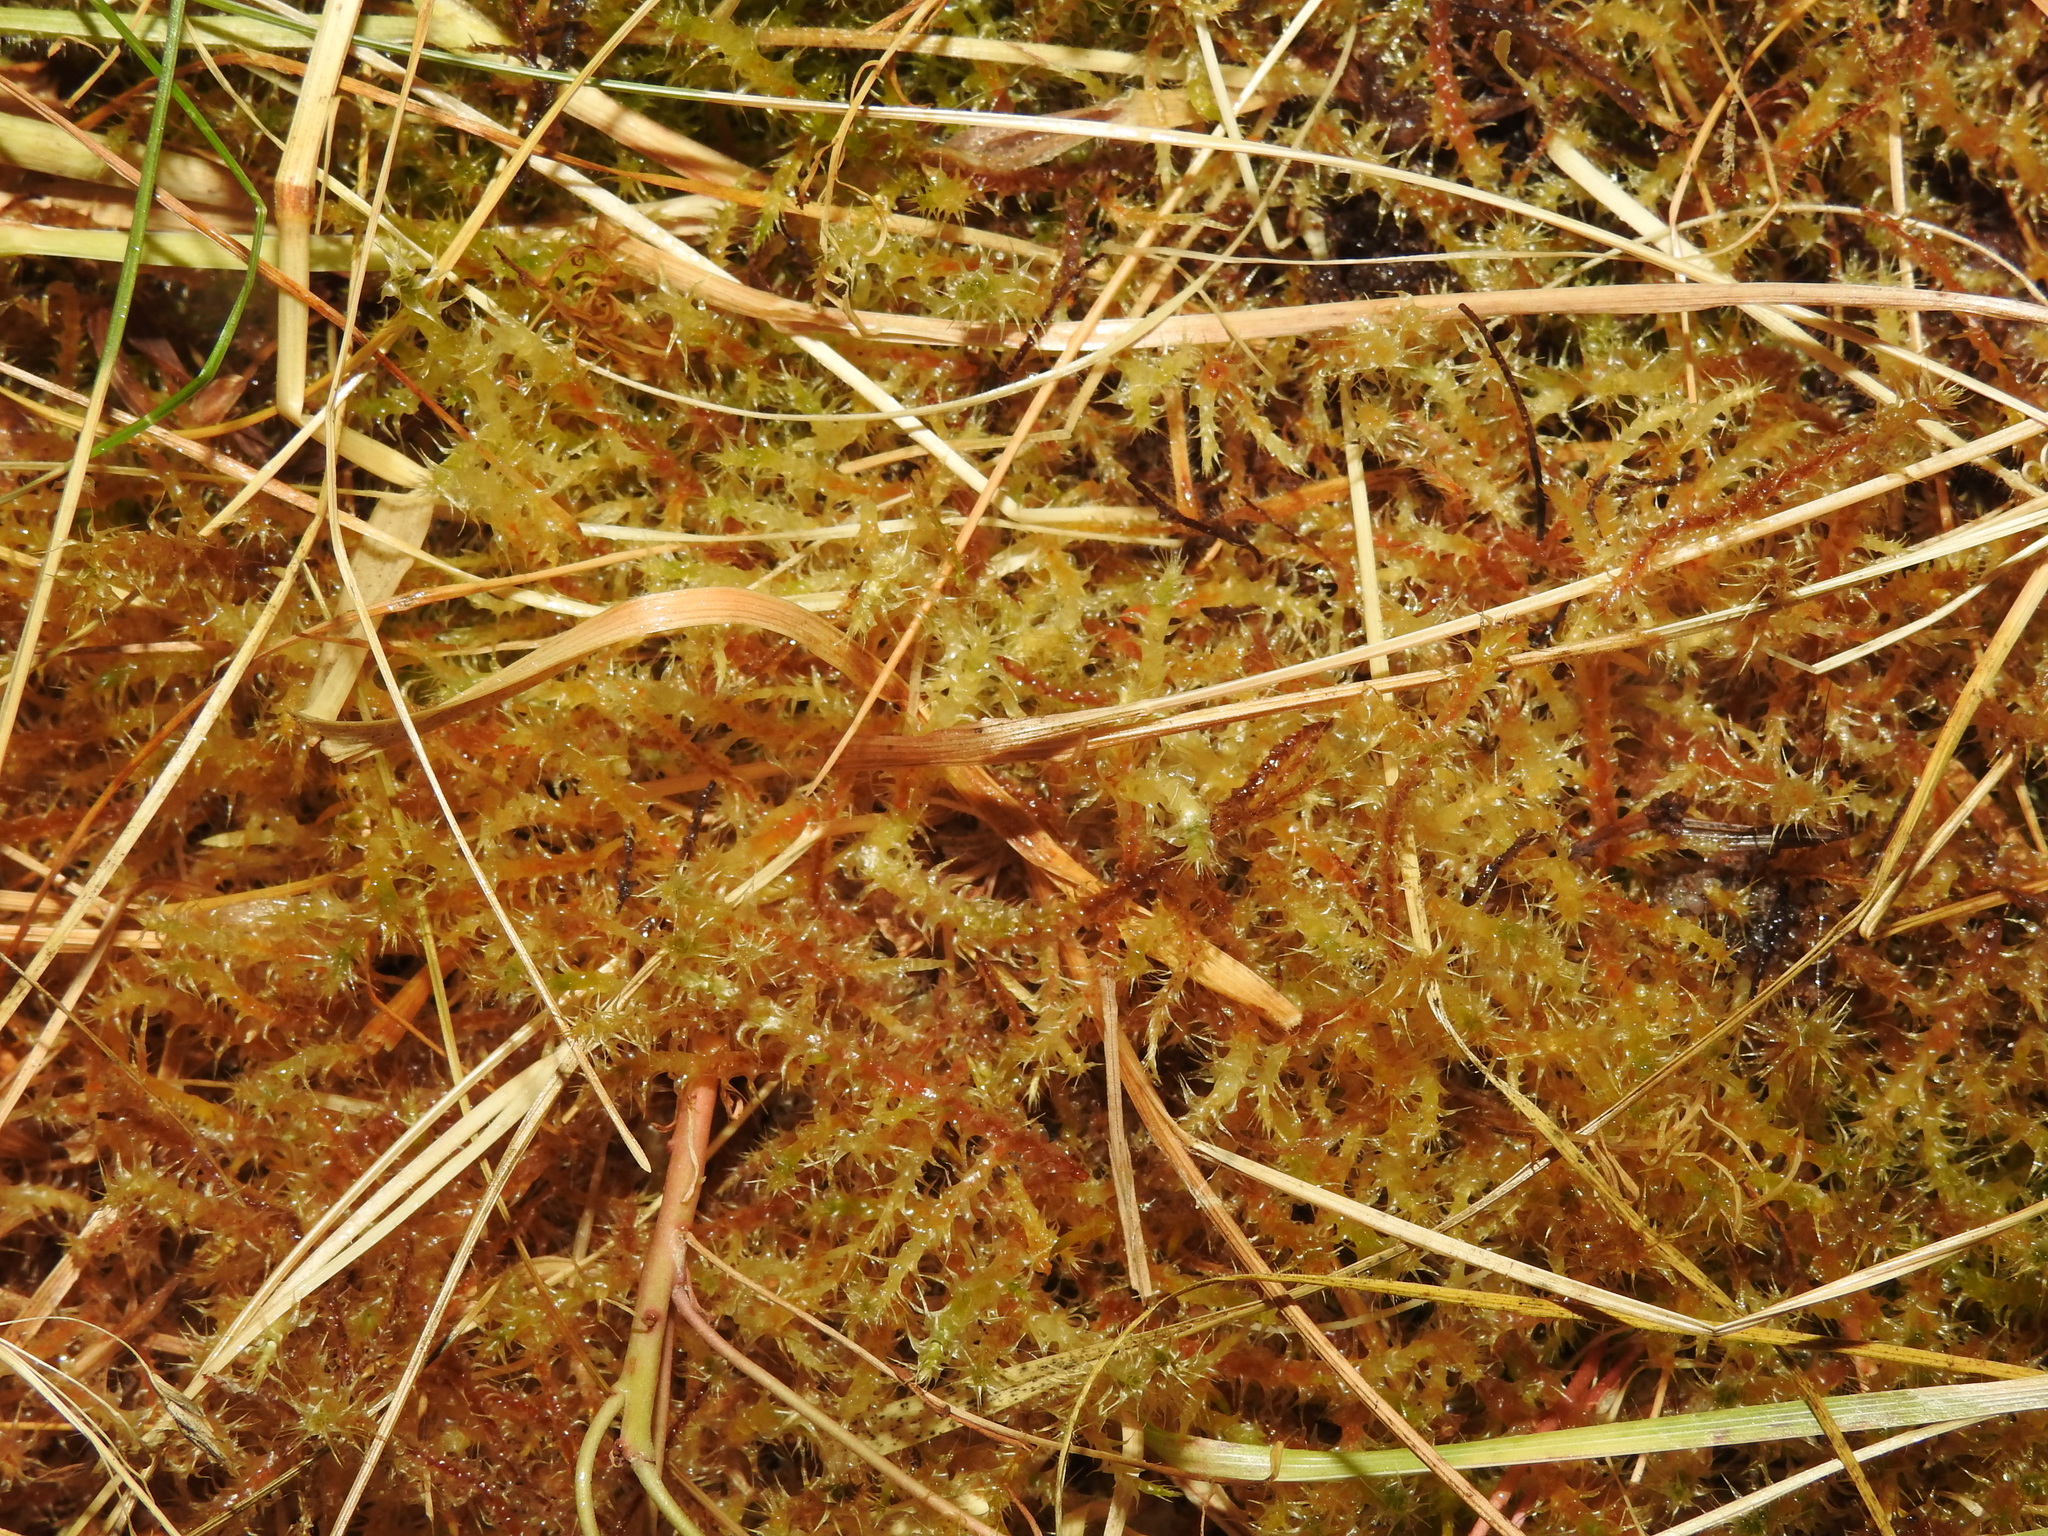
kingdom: Plantae
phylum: Bryophyta
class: Bryopsida
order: Hypnales
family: Hylocomiaceae
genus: Rhytidiadelphus
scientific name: Rhytidiadelphus squarrosus
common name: Springy turf-moss
